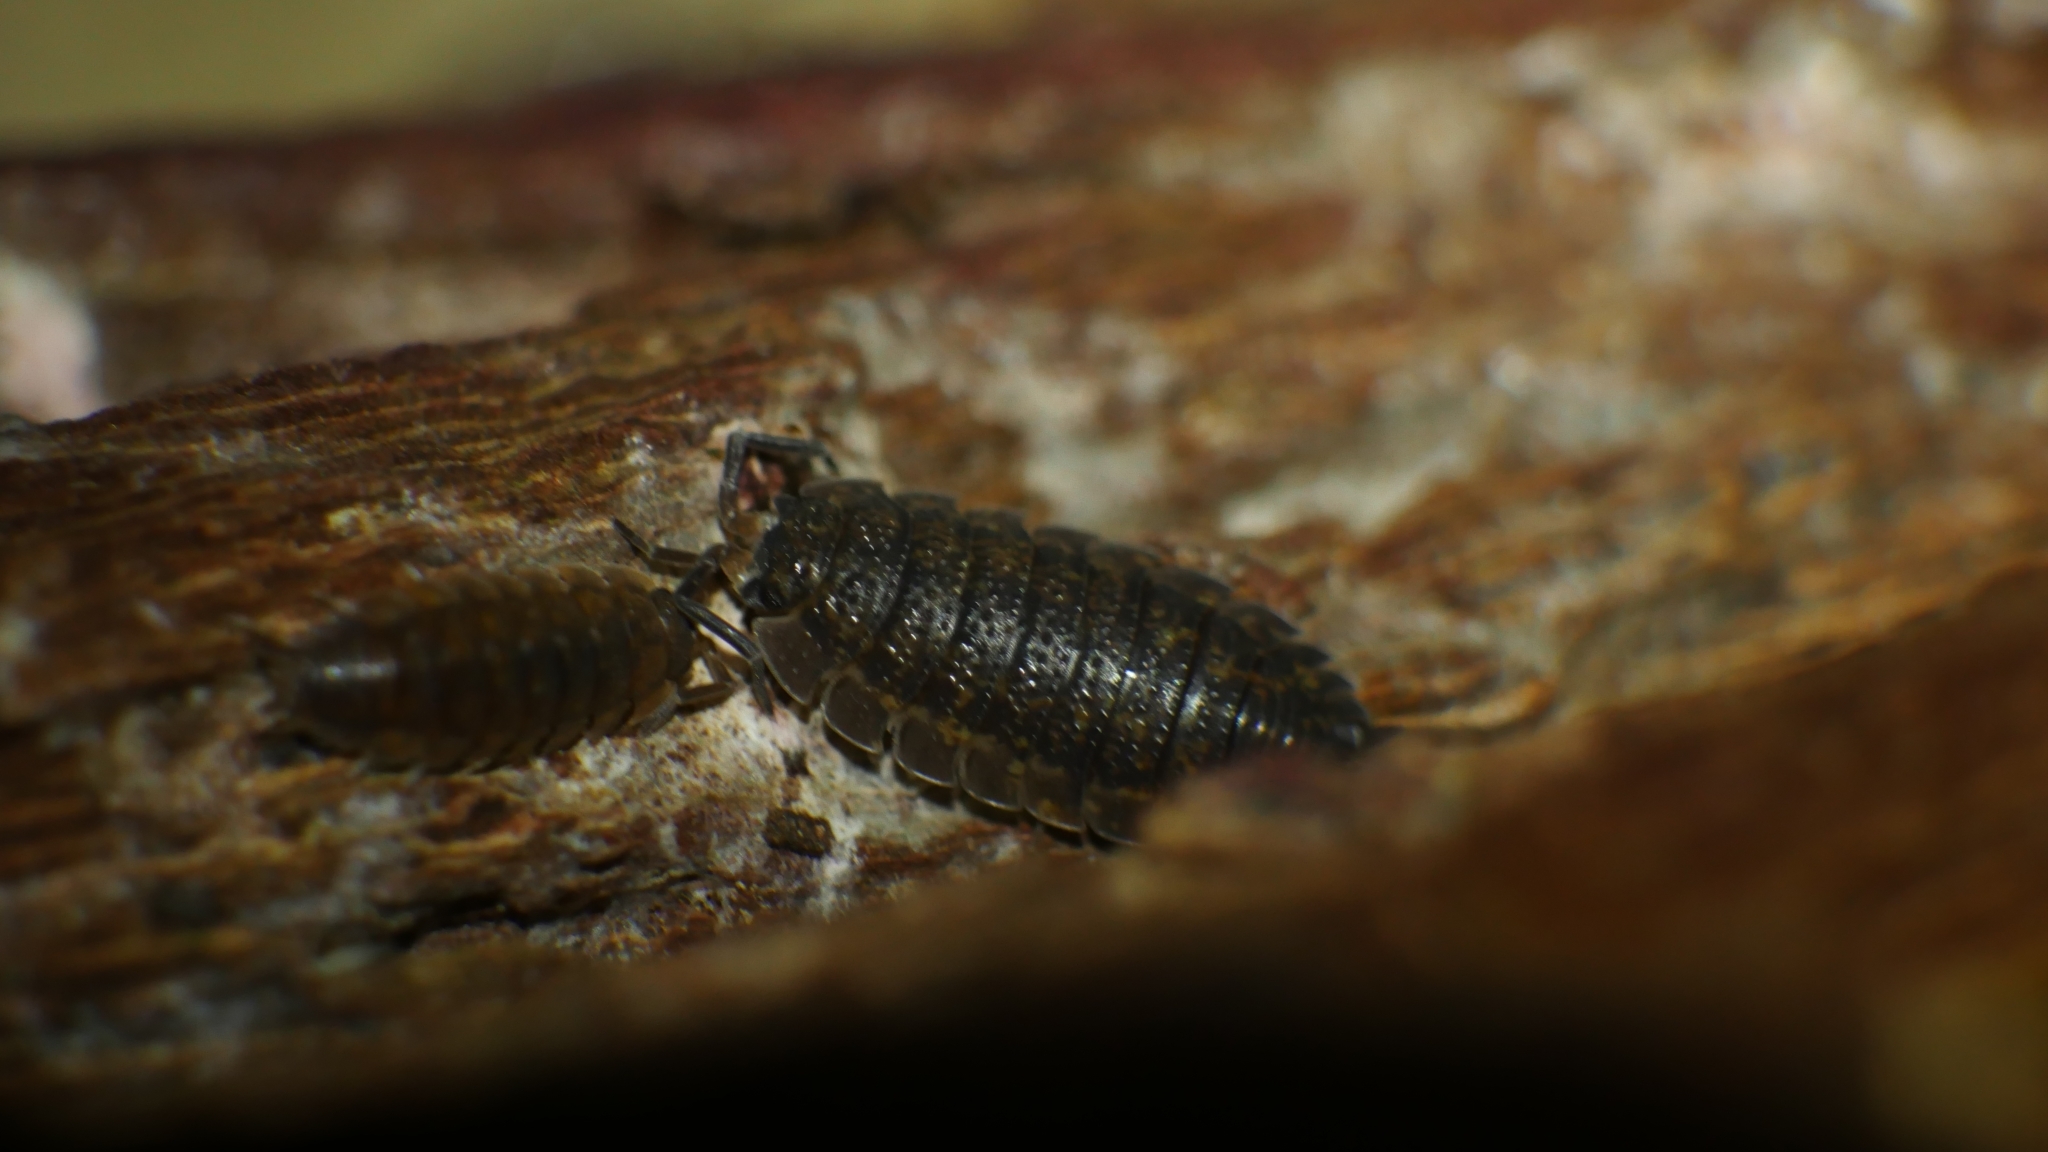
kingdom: Animalia
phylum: Arthropoda
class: Malacostraca
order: Isopoda
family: Porcellionidae
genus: Porcellio
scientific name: Porcellio scaber
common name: Common rough woodlouse
